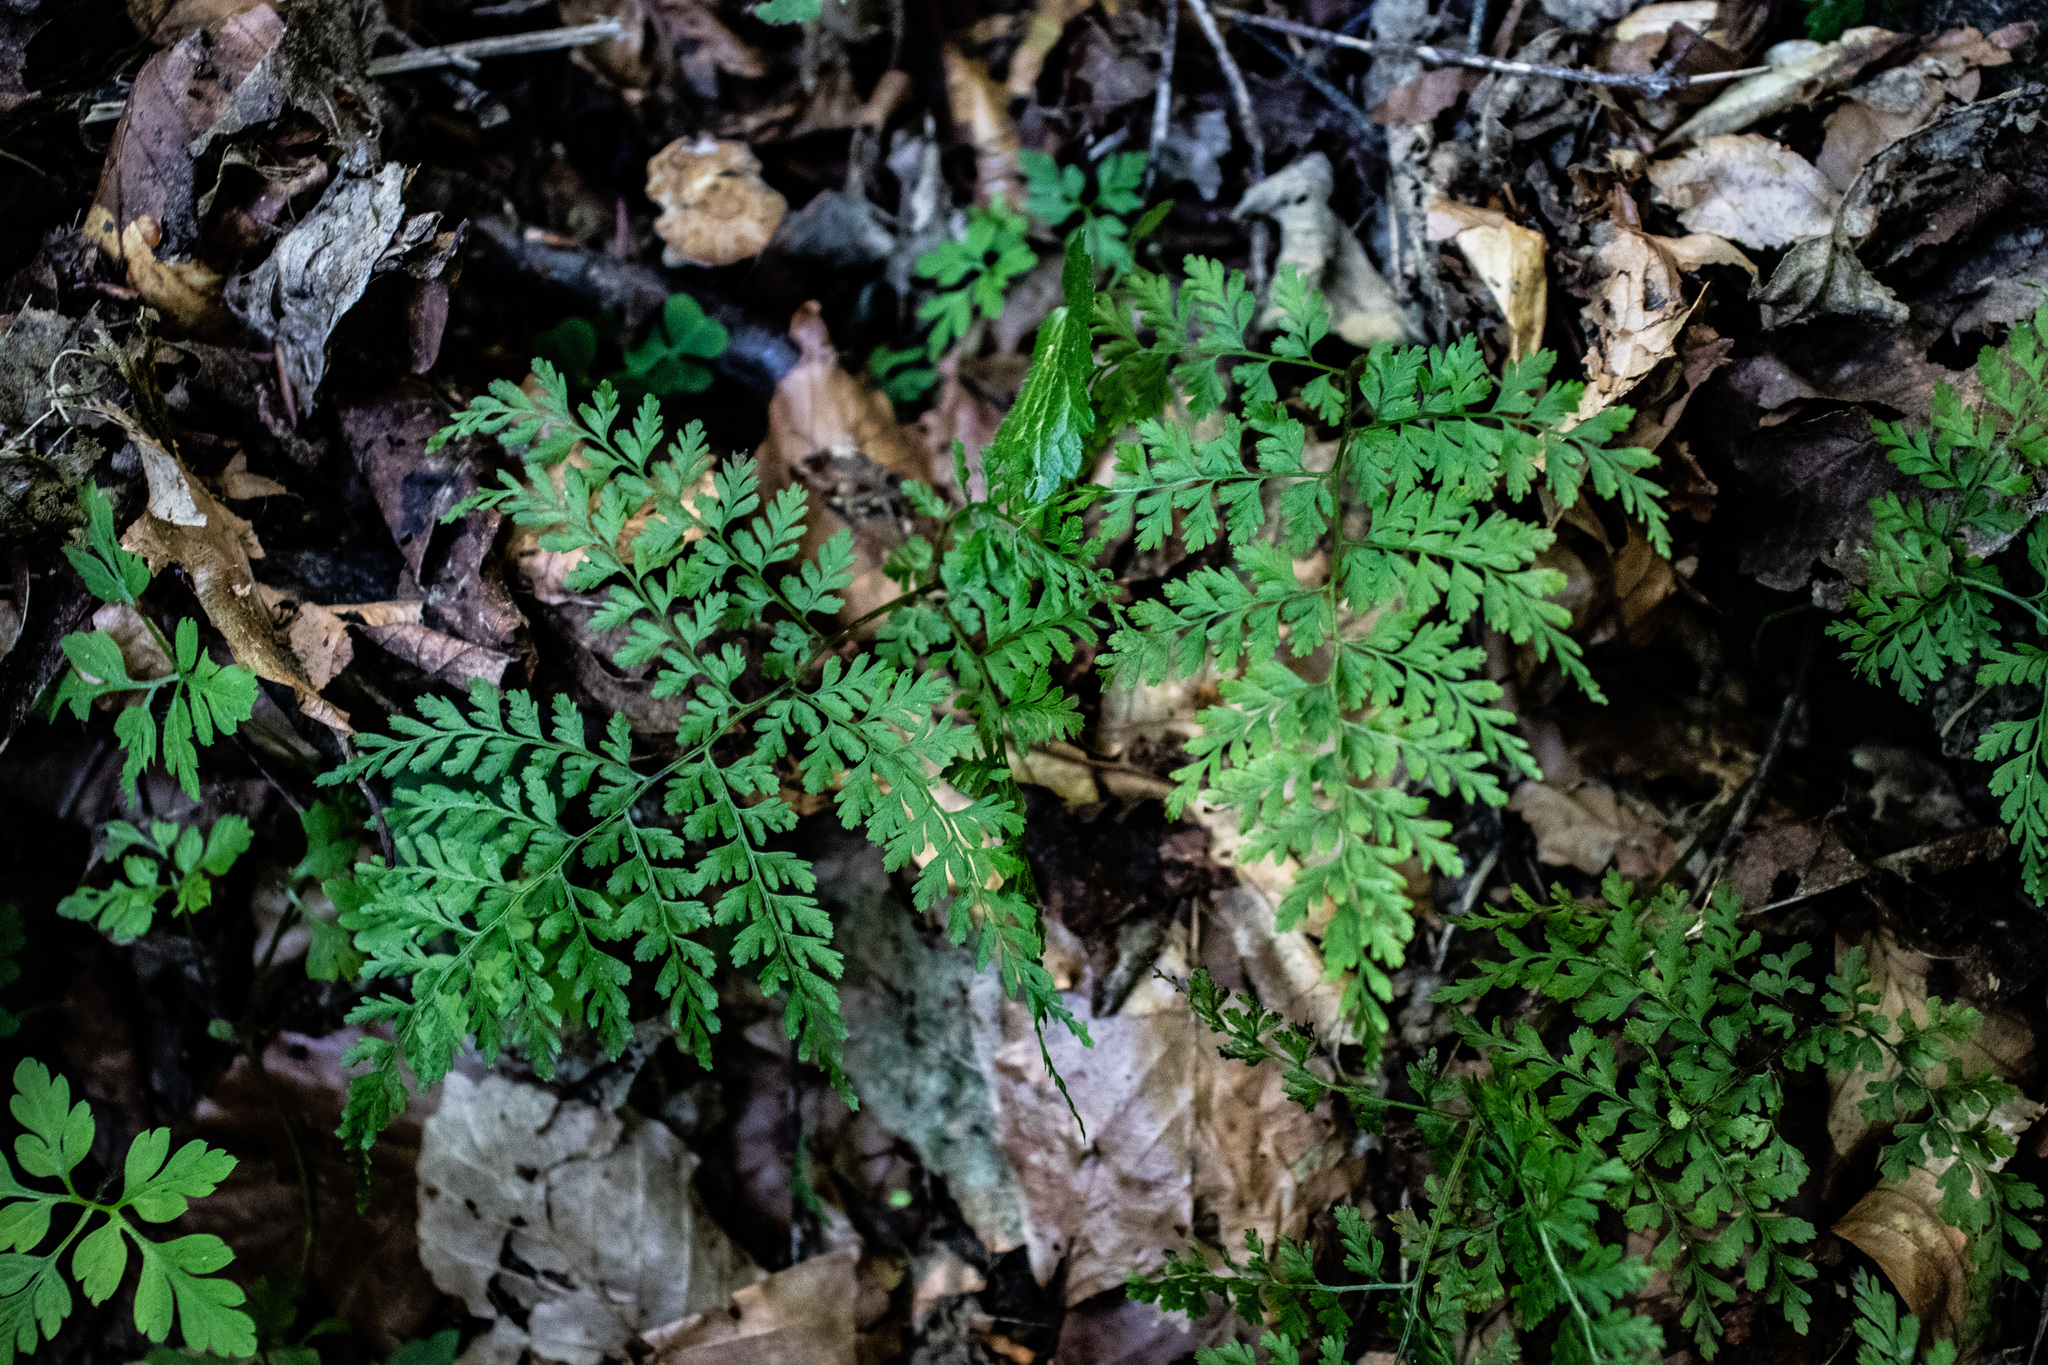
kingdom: Plantae
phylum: Tracheophyta
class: Polypodiopsida
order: Polypodiales
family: Cystopteridaceae
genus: Cystopteris
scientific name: Cystopteris sudetica
